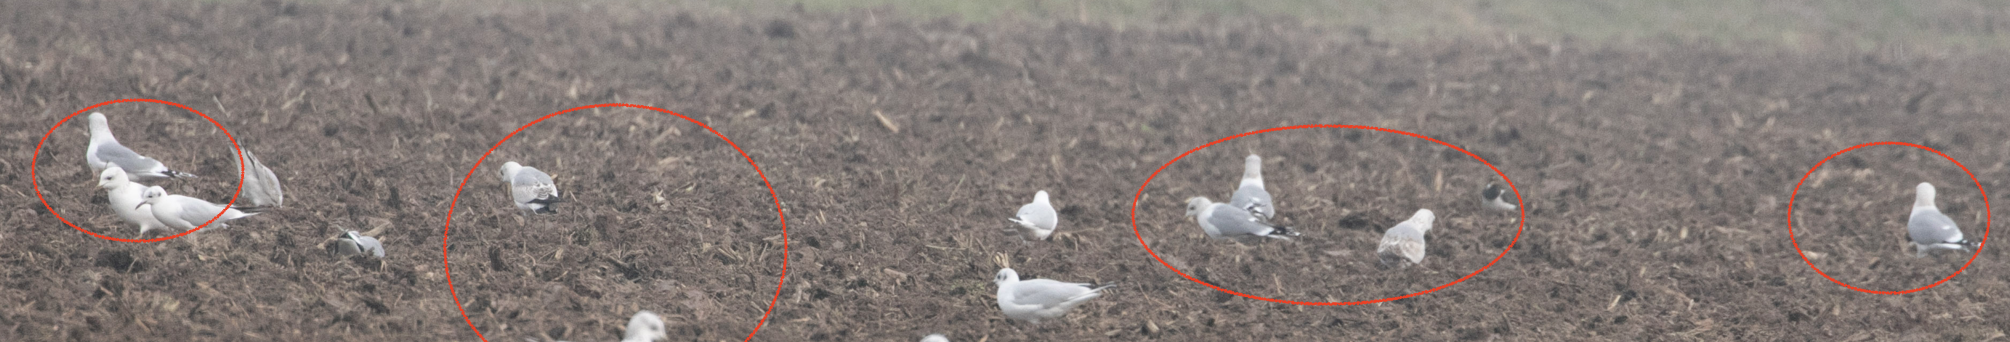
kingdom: Animalia
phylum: Chordata
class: Aves
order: Charadriiformes
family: Laridae
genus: Larus
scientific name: Larus canus
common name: Mew gull
